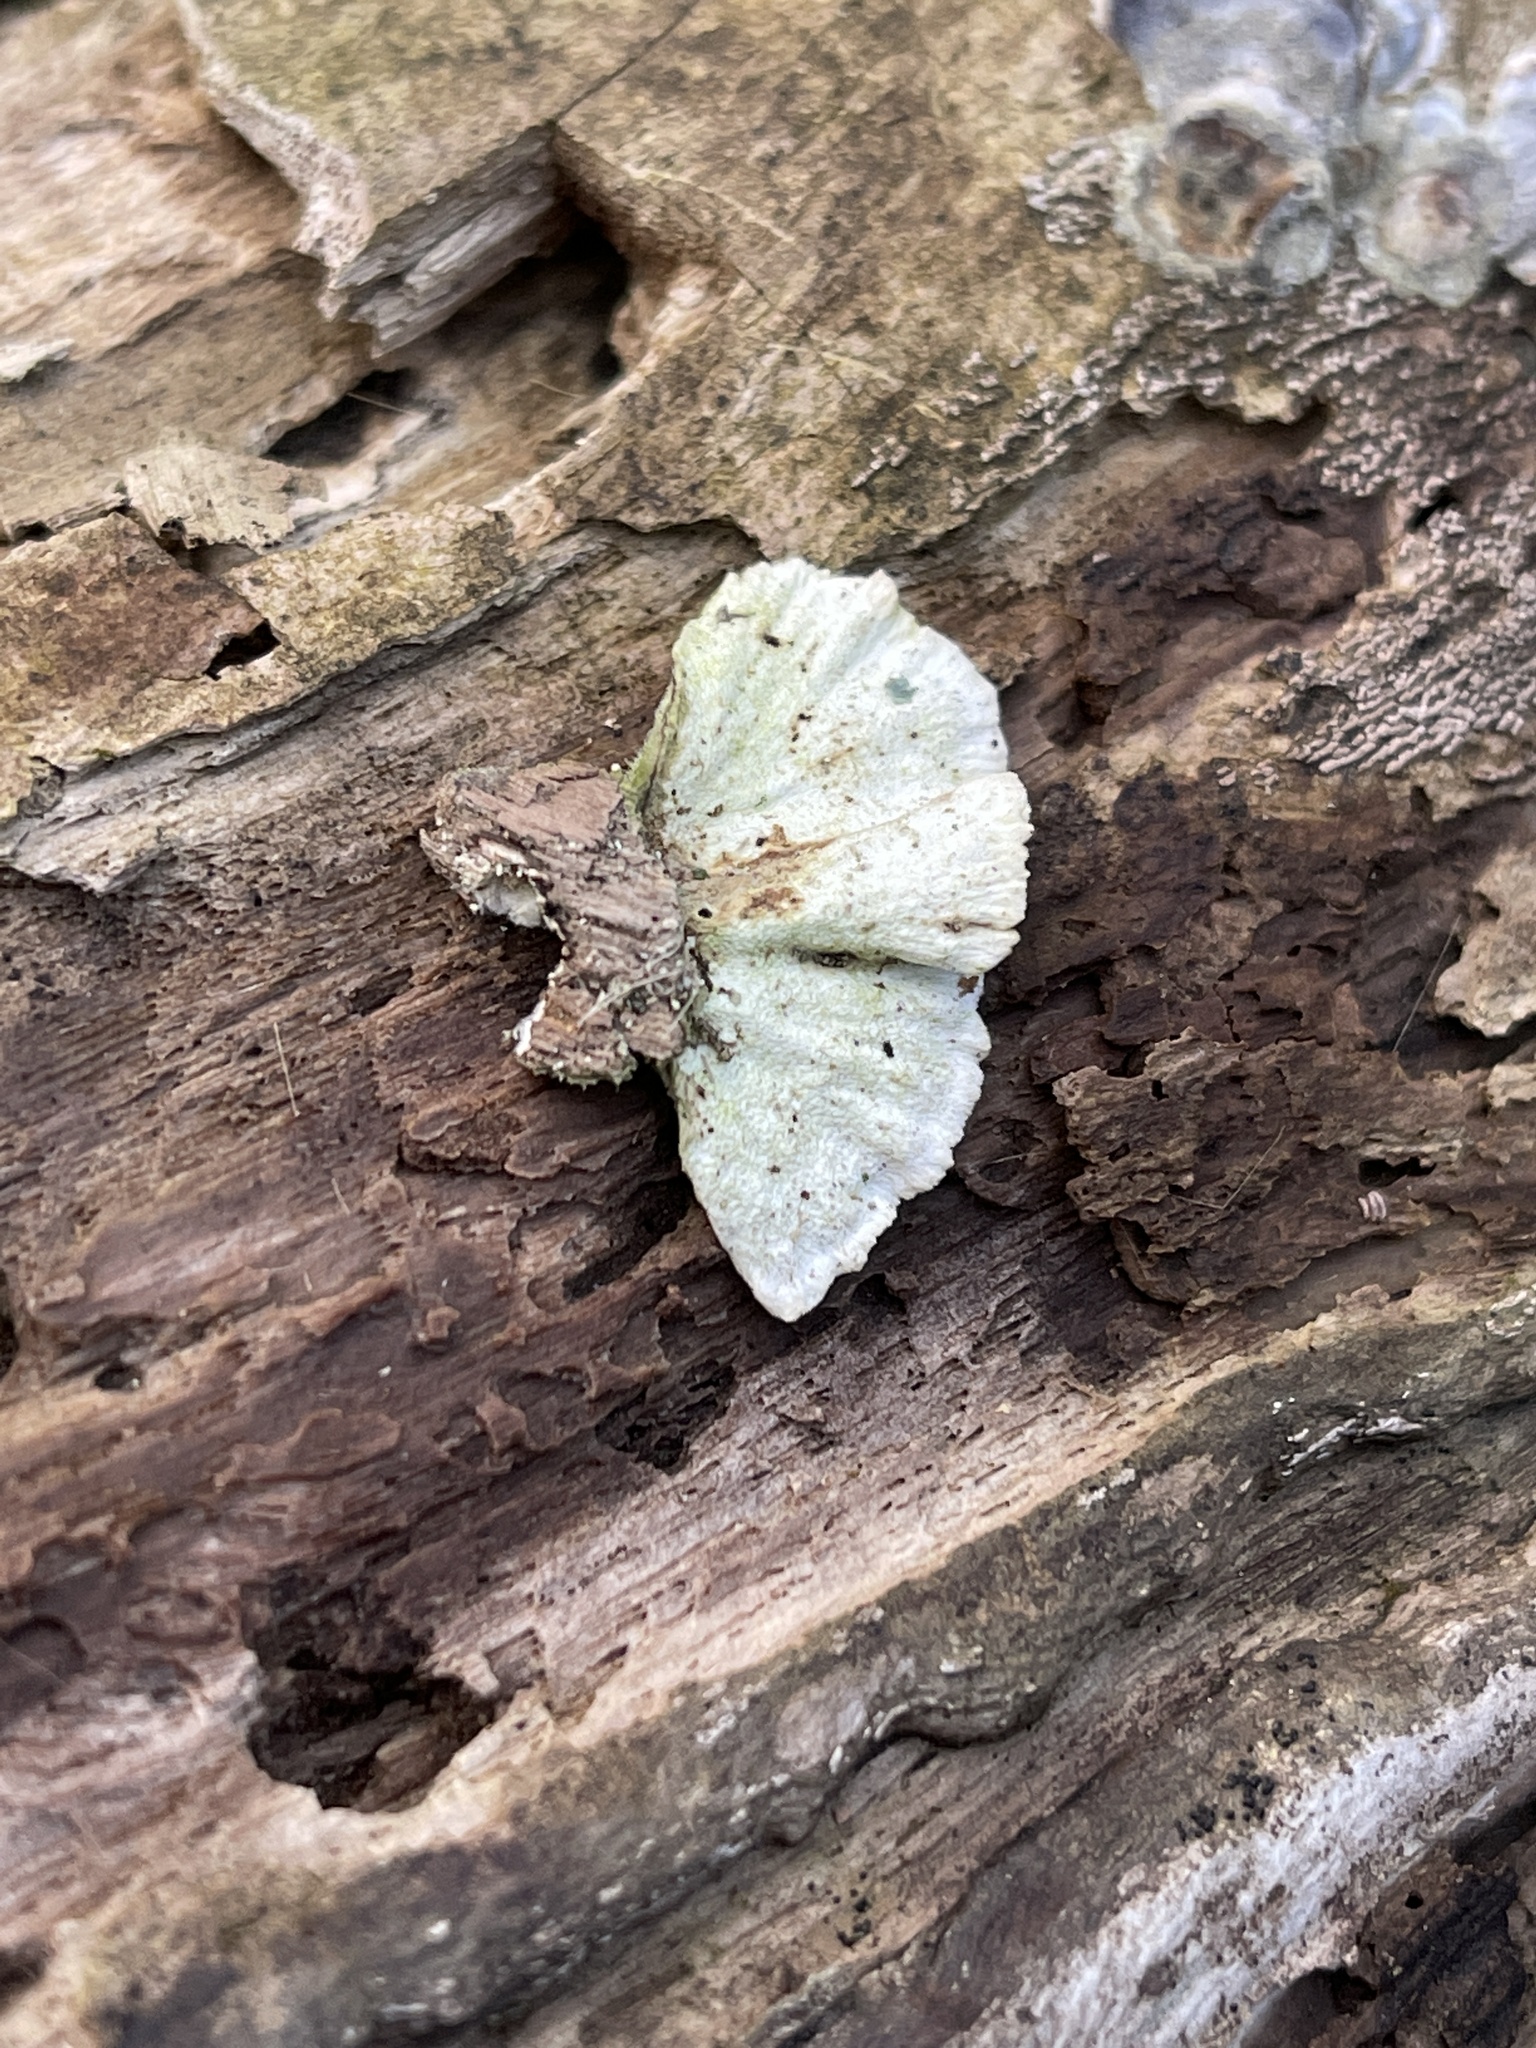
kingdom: Fungi
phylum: Basidiomycota
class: Agaricomycetes
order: Polyporales
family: Polyporaceae
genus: Trametes
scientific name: Trametes versicolor
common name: Turkeytail
